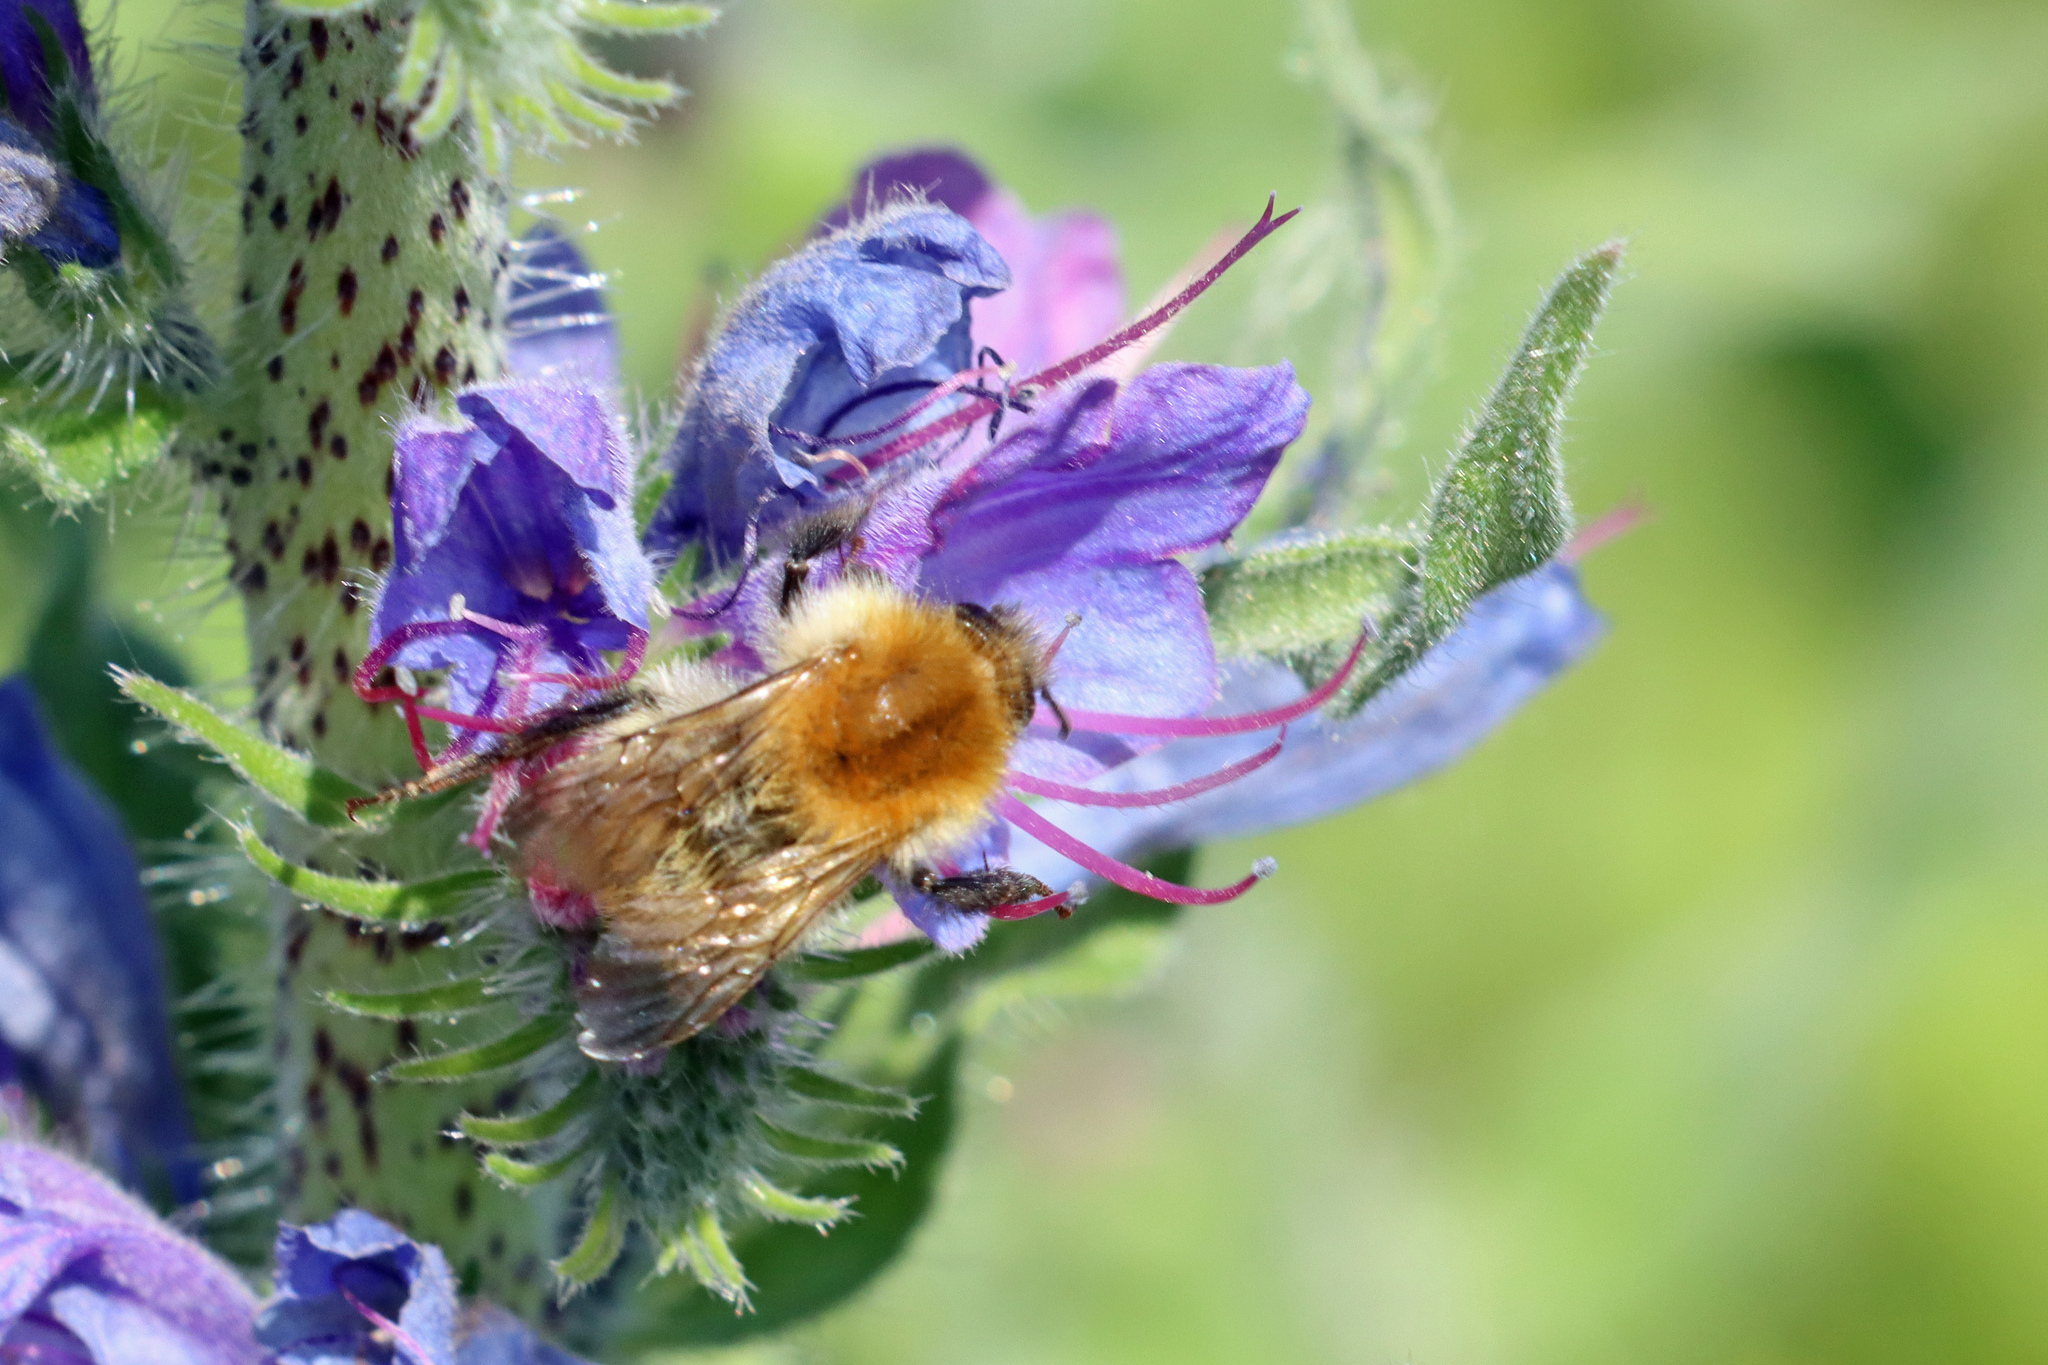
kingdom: Animalia
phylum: Arthropoda
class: Insecta
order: Hymenoptera
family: Apidae
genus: Bombus
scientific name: Bombus pascuorum
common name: Common carder bee
